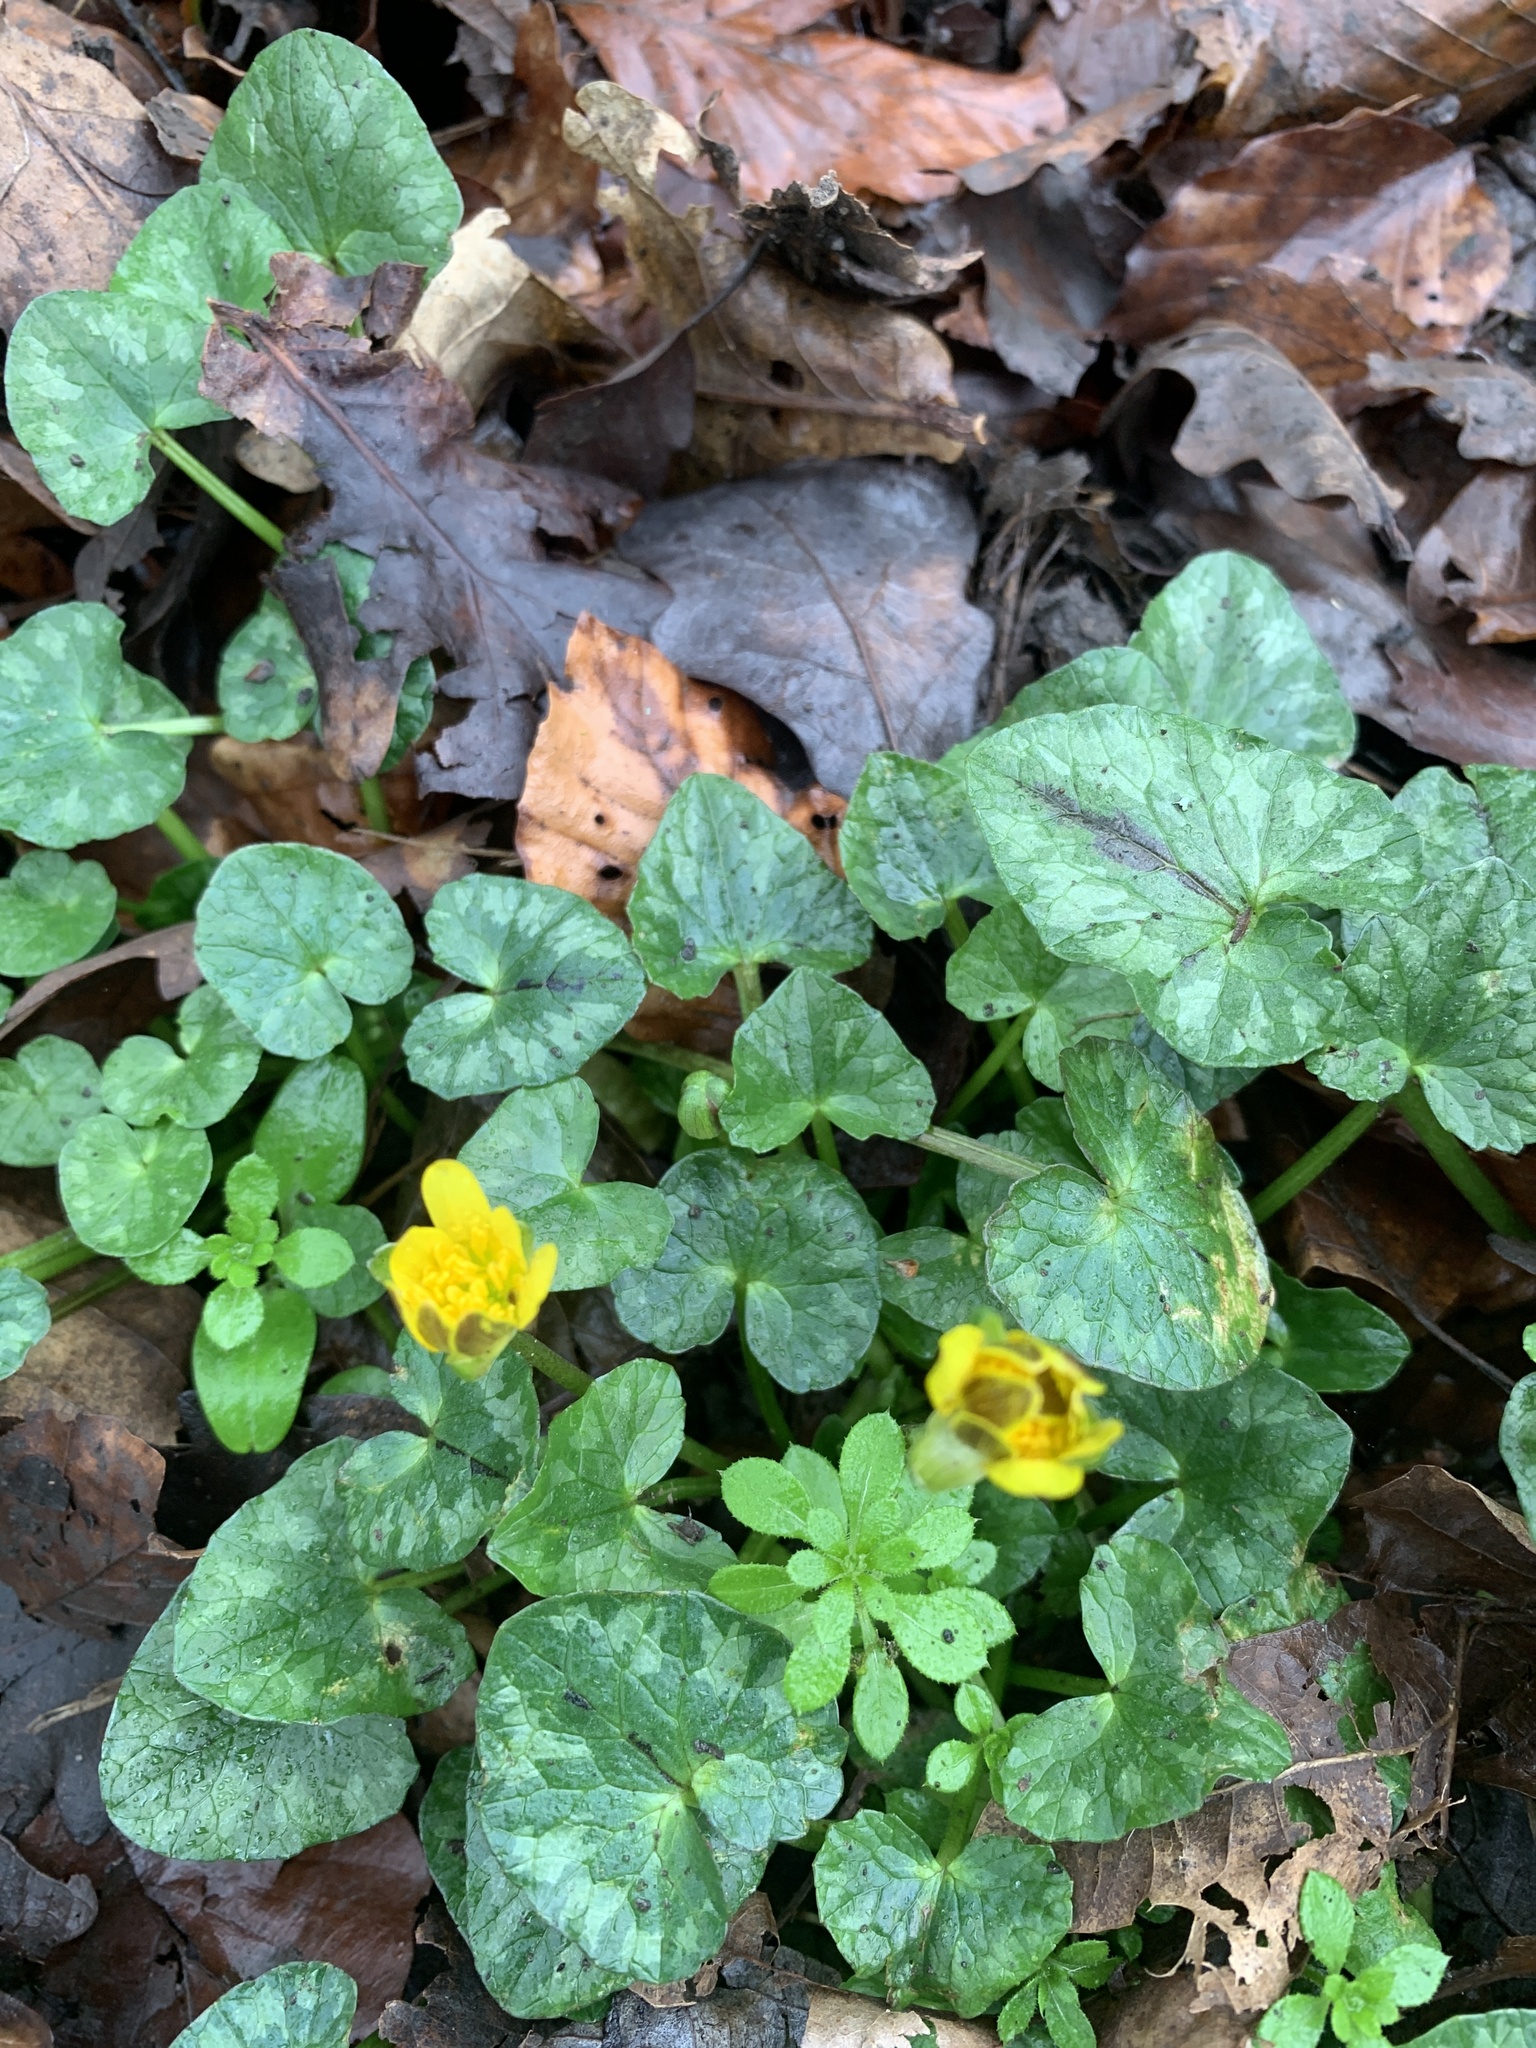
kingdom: Plantae
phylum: Tracheophyta
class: Magnoliopsida
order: Ranunculales
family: Ranunculaceae
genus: Ficaria
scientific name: Ficaria verna
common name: Lesser celandine
